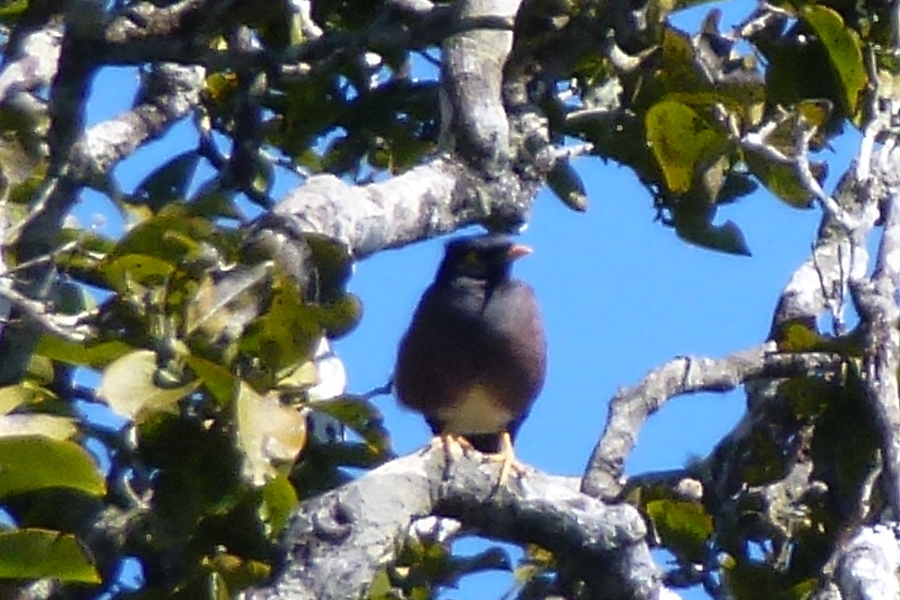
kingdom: Animalia
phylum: Chordata
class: Aves
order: Passeriformes
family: Sturnidae
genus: Acridotheres
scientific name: Acridotheres tristis
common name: Common myna
